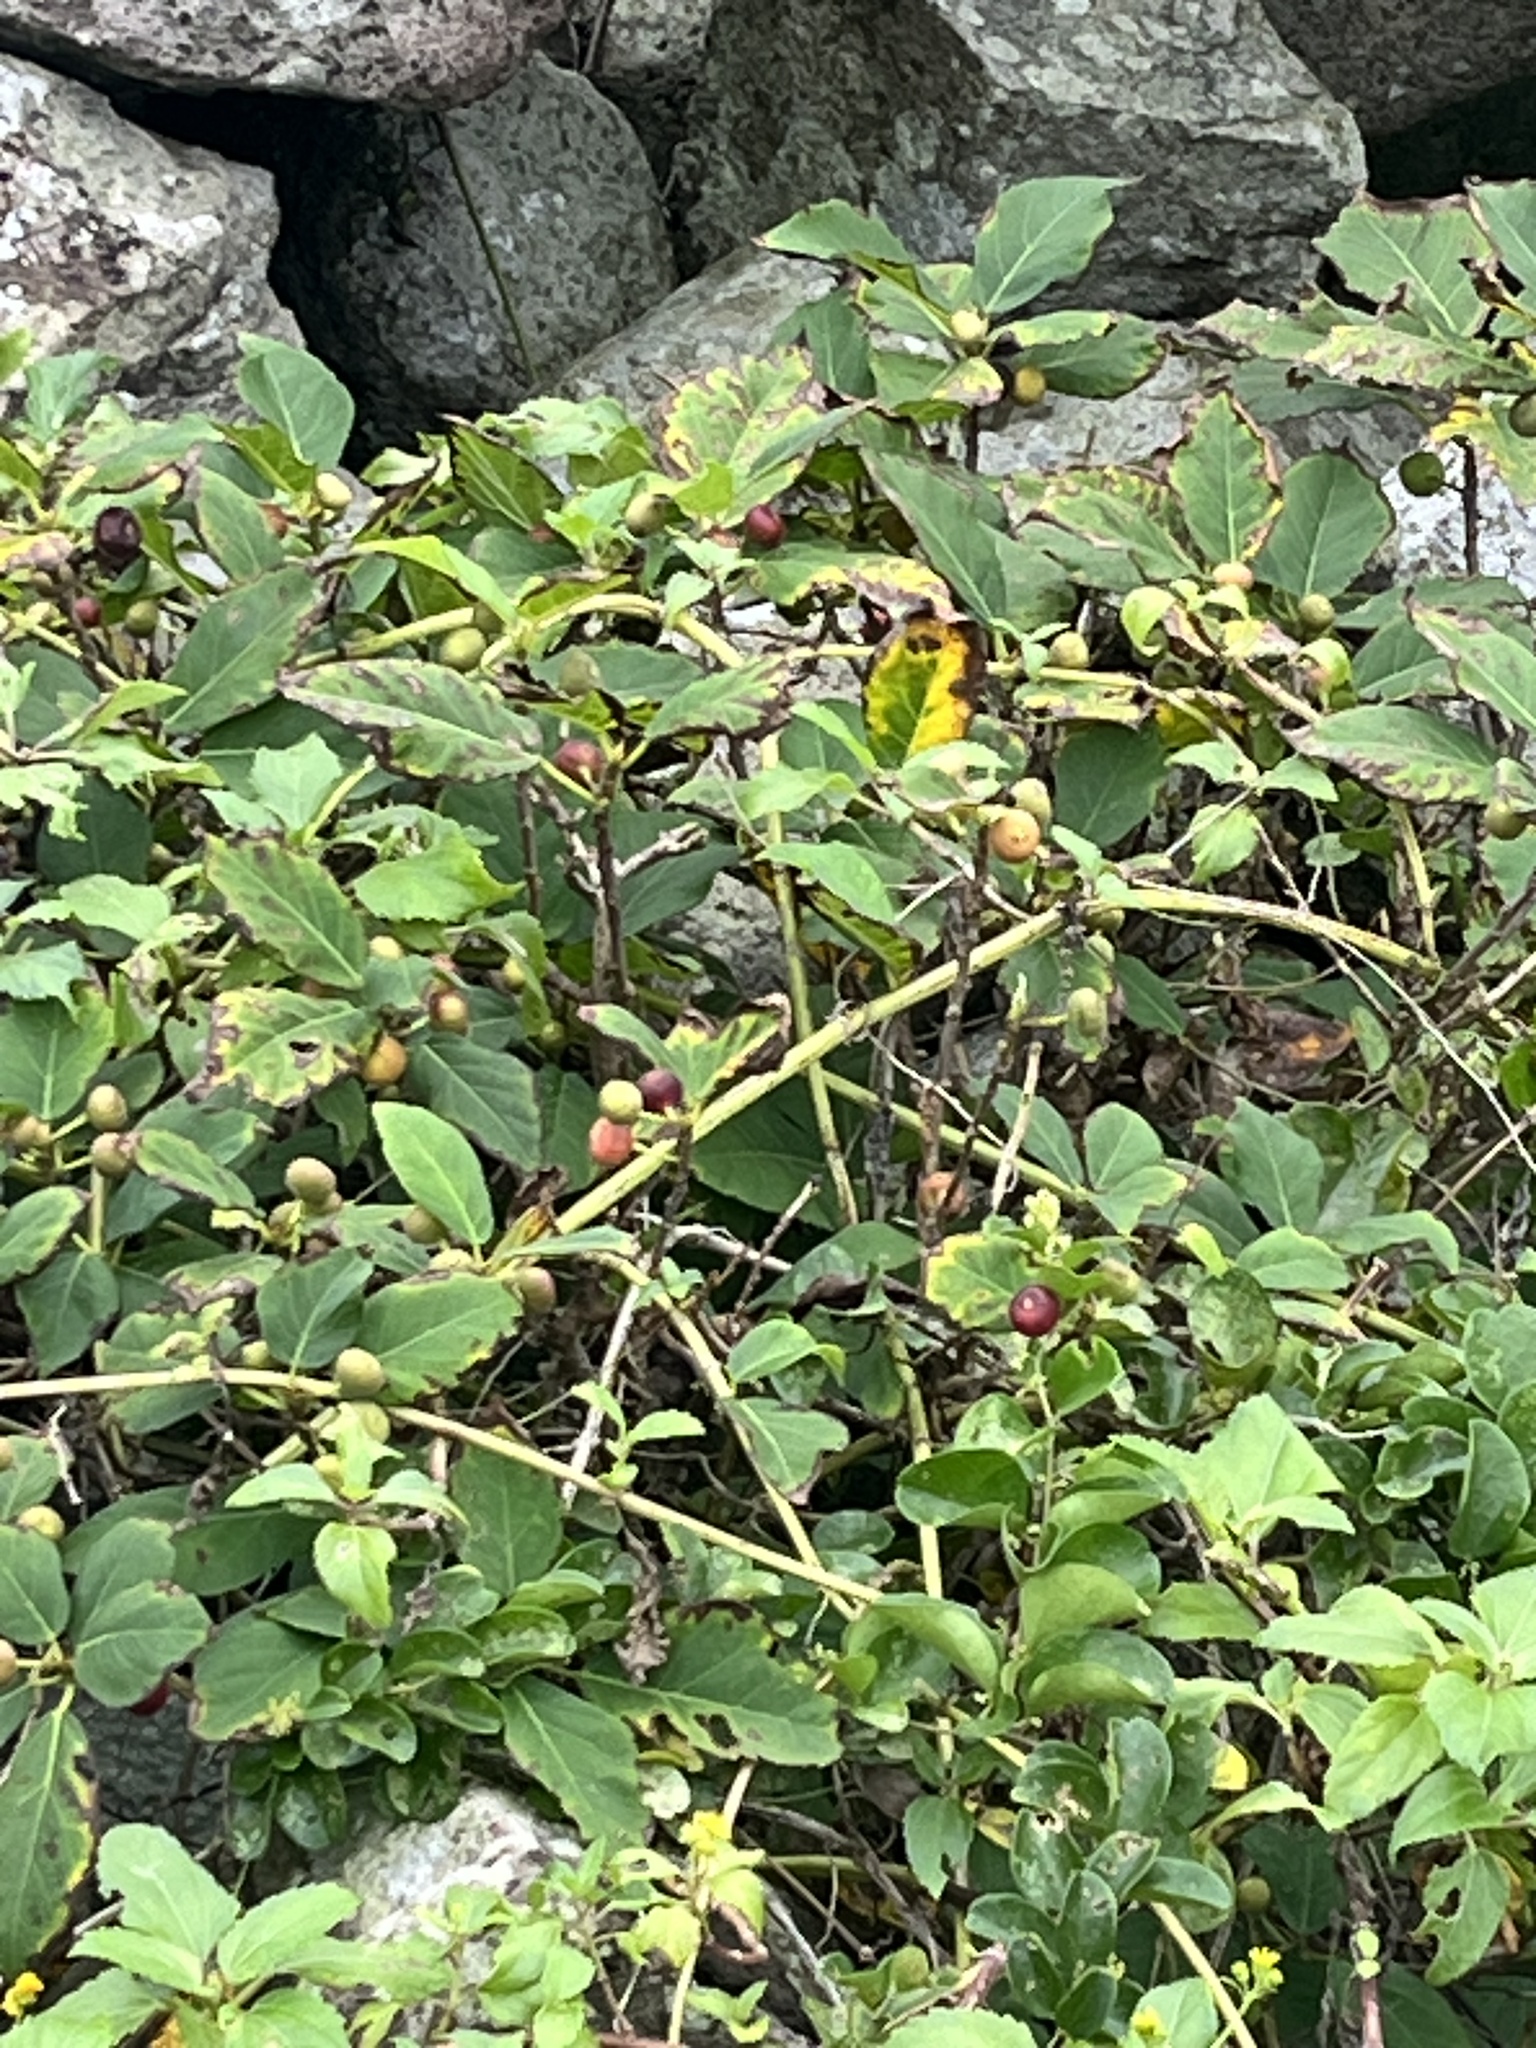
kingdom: Plantae
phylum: Tracheophyta
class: Magnoliopsida
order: Rosales
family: Moraceae
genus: Ficus
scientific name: Ficus erecta
